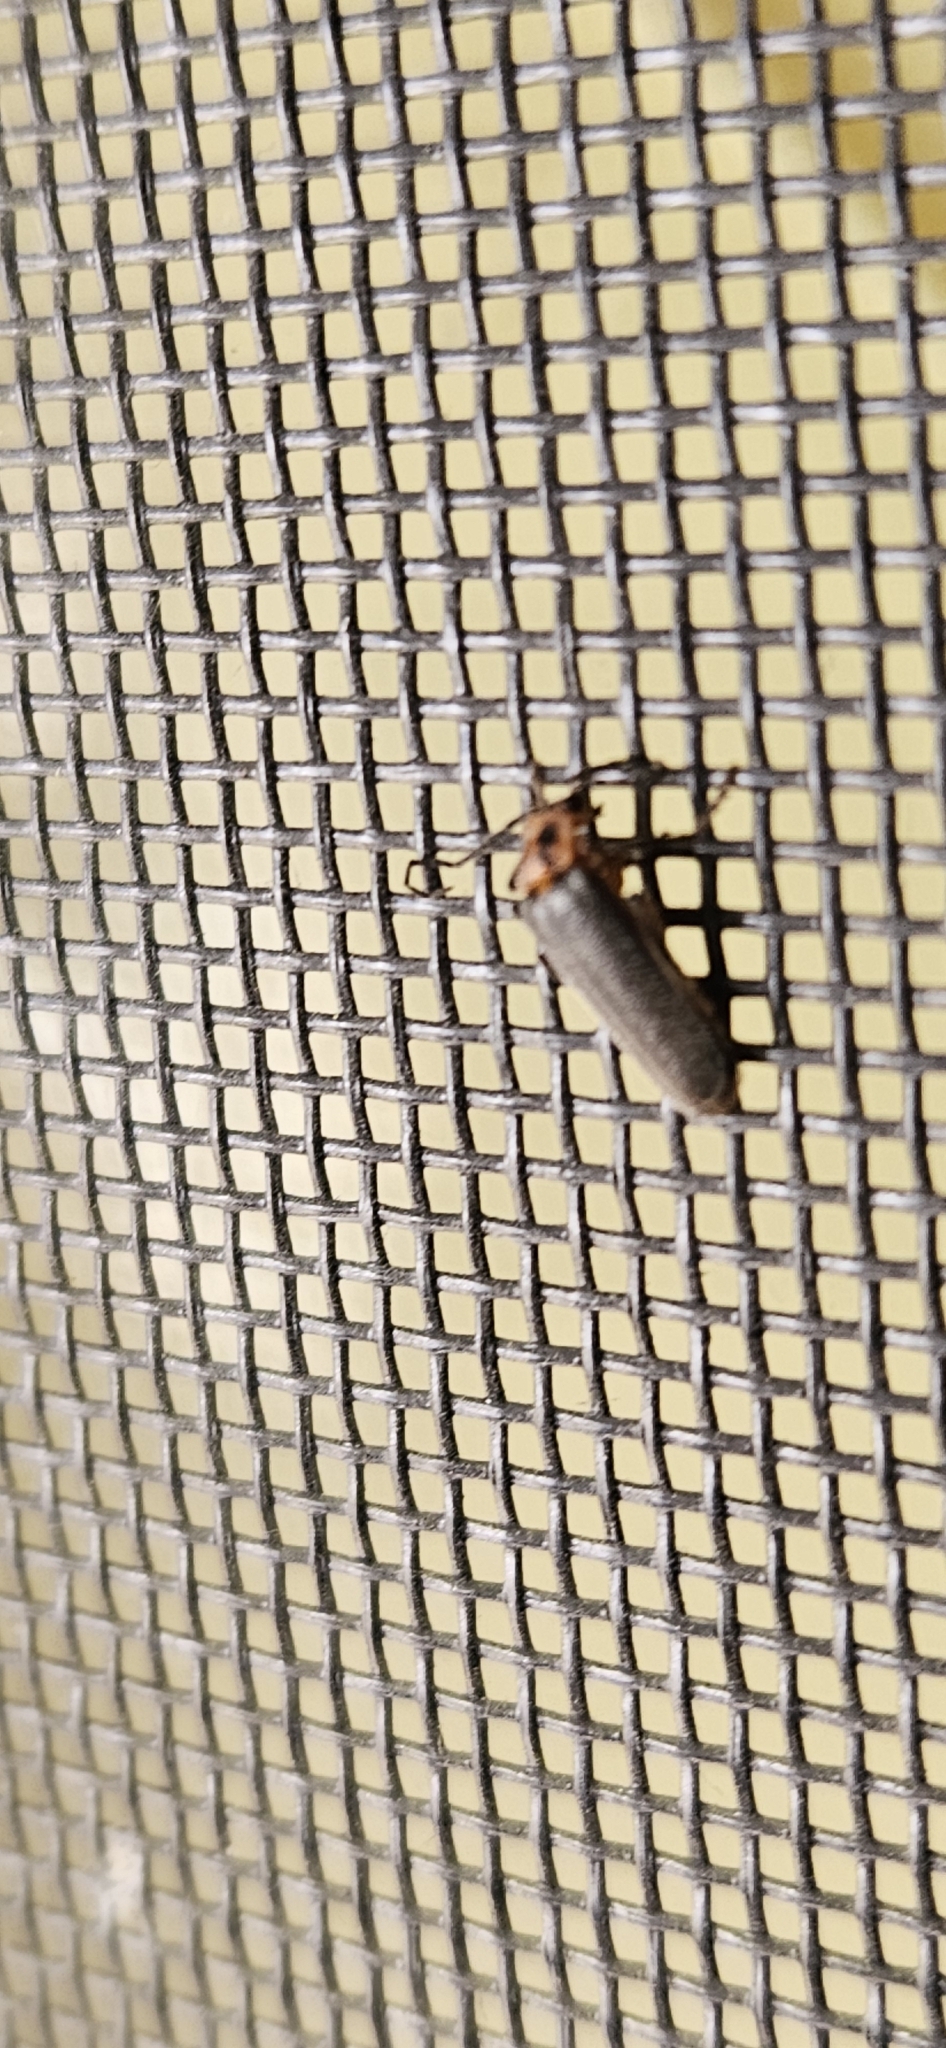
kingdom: Animalia
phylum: Arthropoda
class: Insecta
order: Coleoptera
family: Cantharidae
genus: Atalantycha
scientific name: Atalantycha bilineata
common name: Two-lined leatherwing
